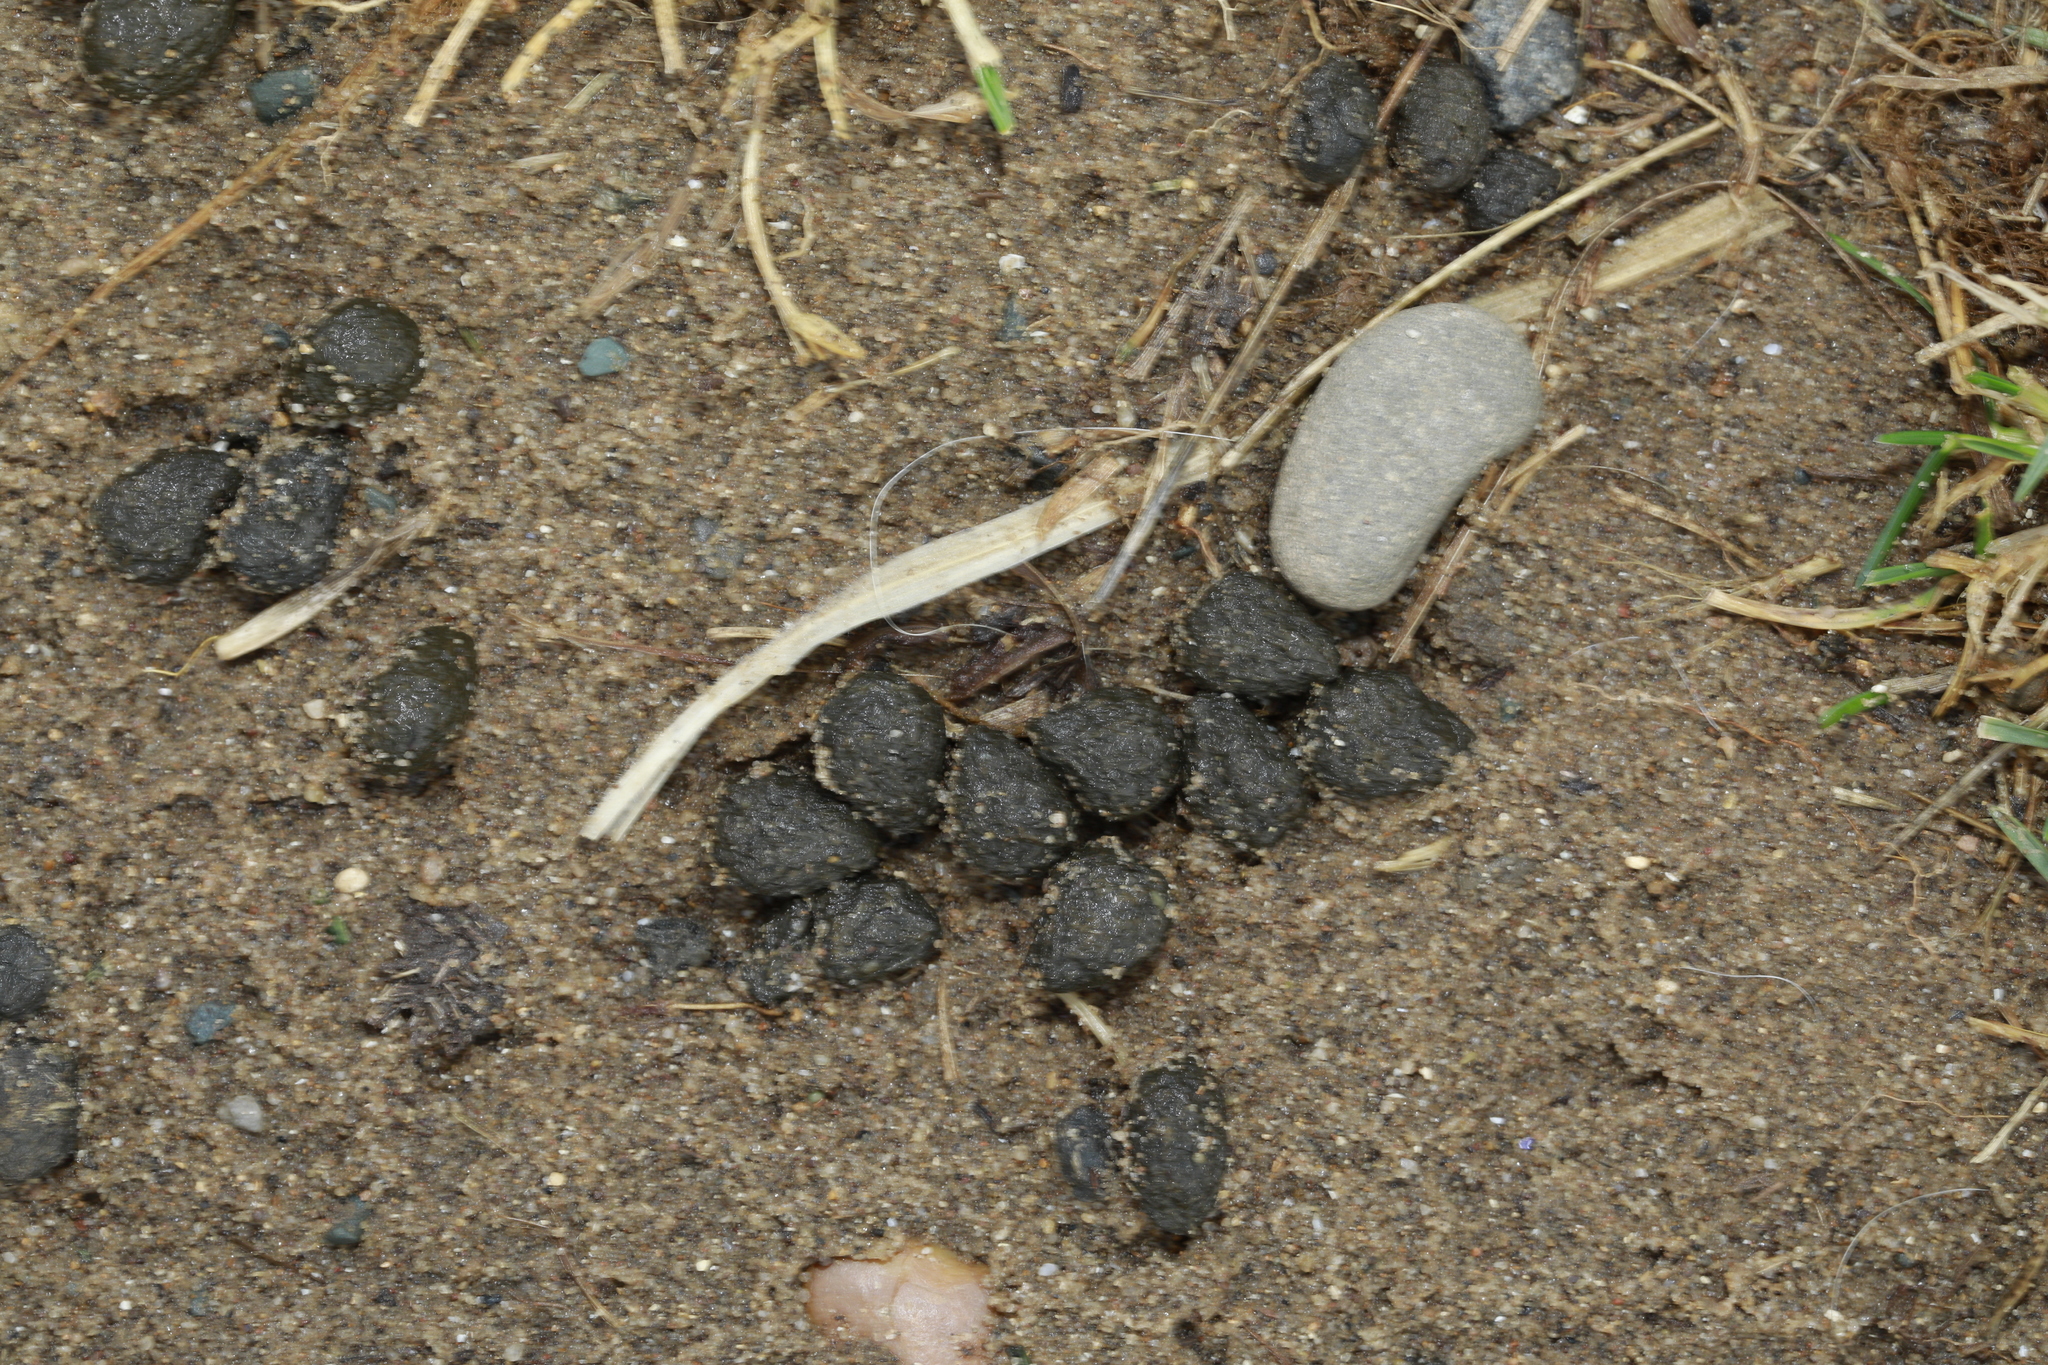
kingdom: Animalia
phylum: Chordata
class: Mammalia
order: Lagomorpha
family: Leporidae
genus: Oryctolagus
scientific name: Oryctolagus cuniculus
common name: European rabbit
